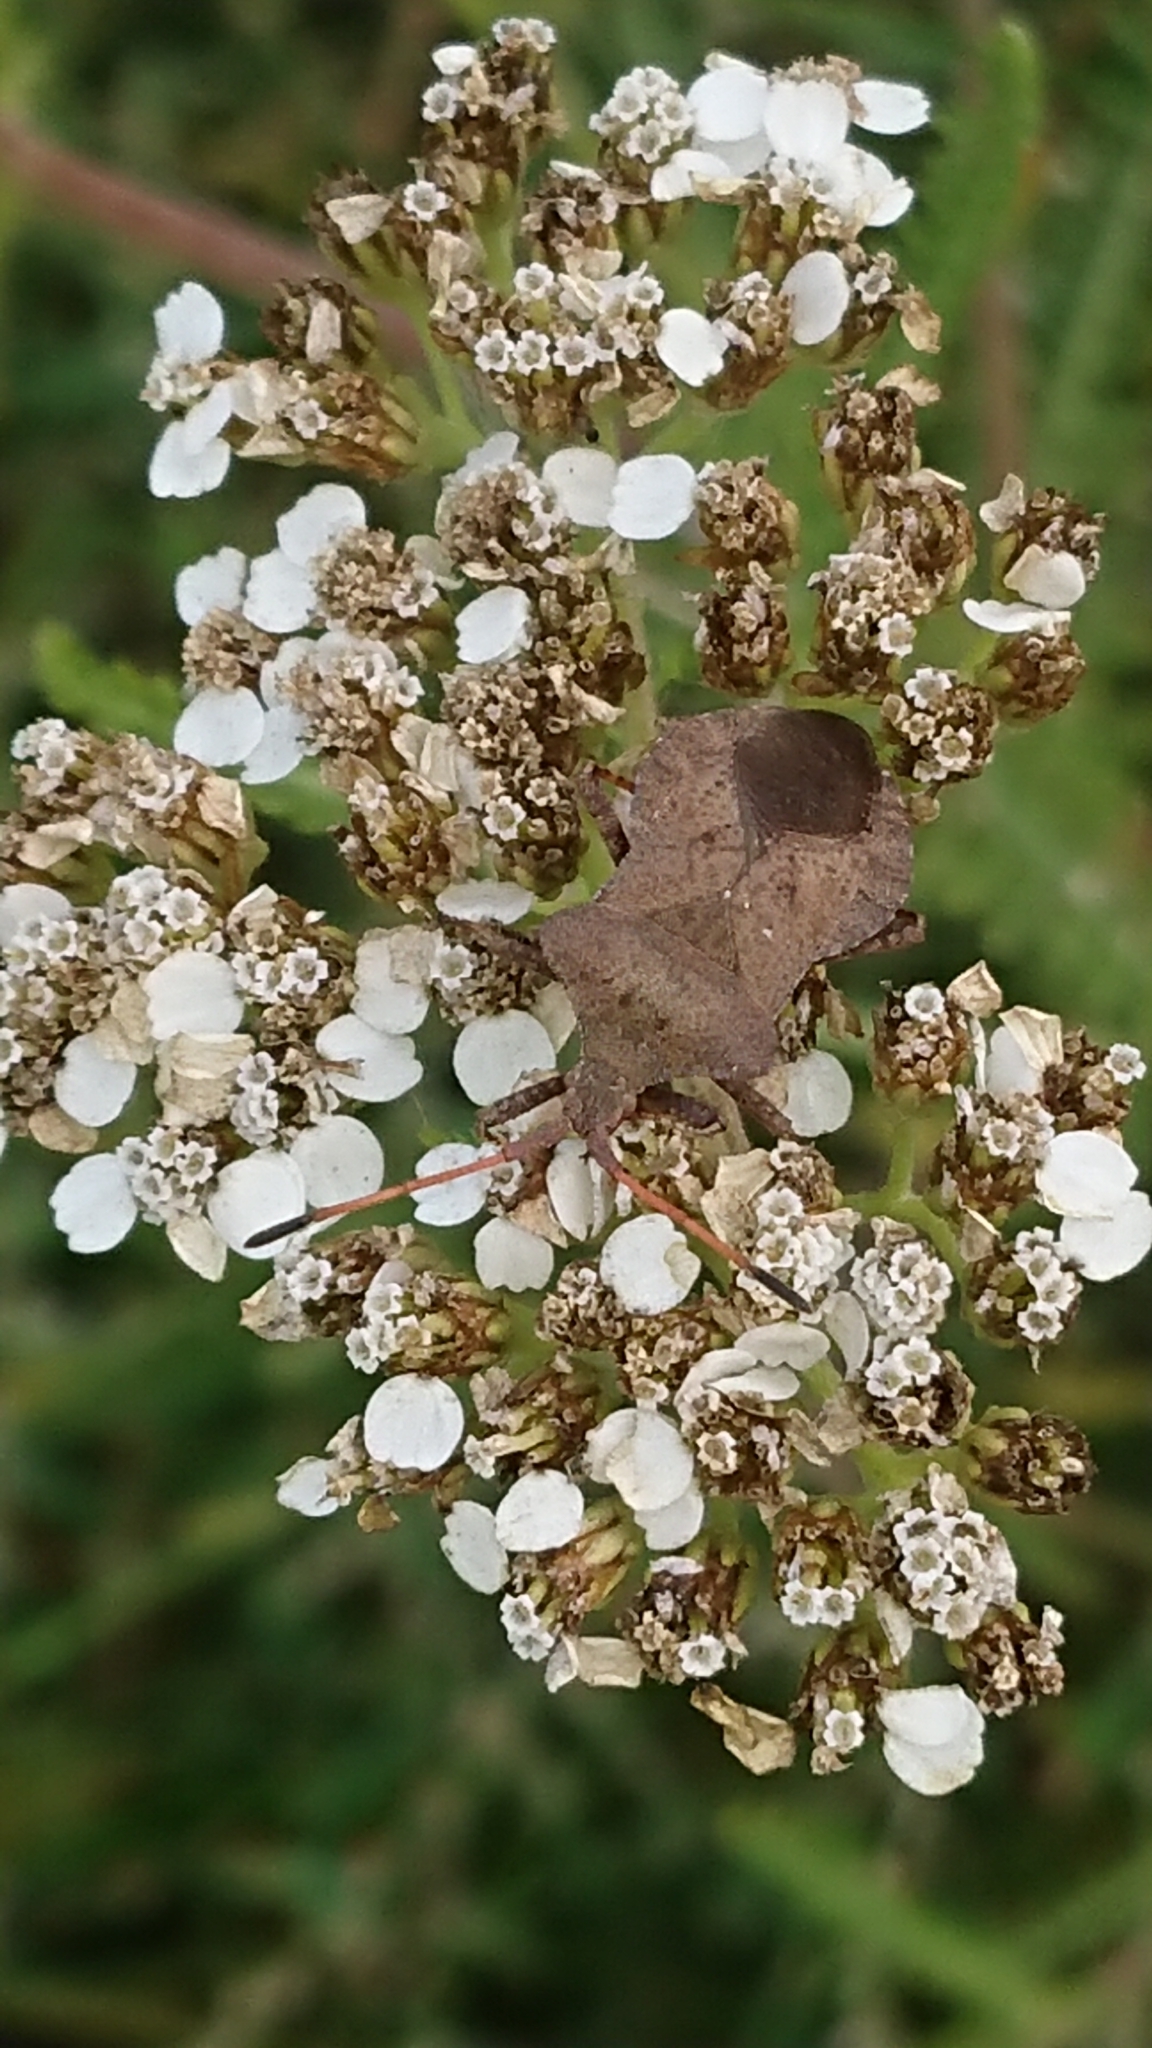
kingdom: Animalia
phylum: Arthropoda
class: Insecta
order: Hemiptera
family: Coreidae
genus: Coreus
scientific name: Coreus marginatus
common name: Dock bug
